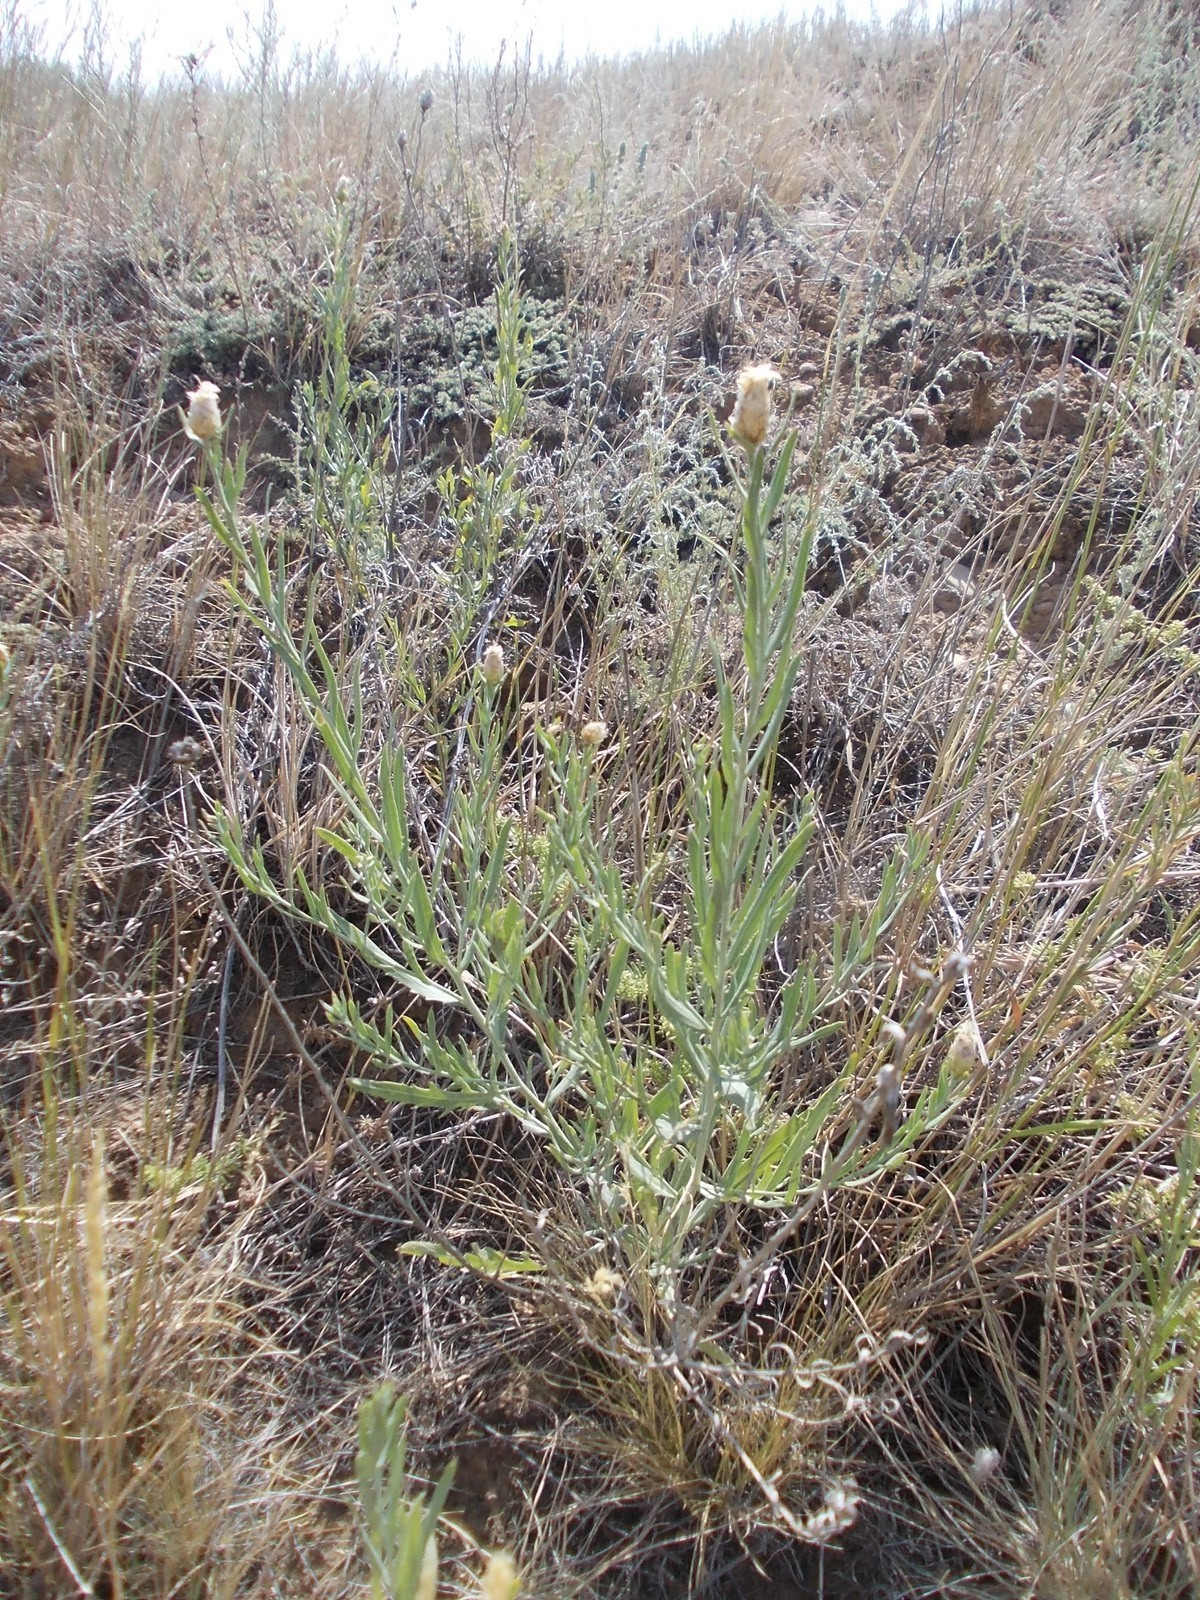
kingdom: Plantae
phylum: Tracheophyta
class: Magnoliopsida
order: Asterales
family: Asteraceae
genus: Leuzea
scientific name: Leuzea repens
